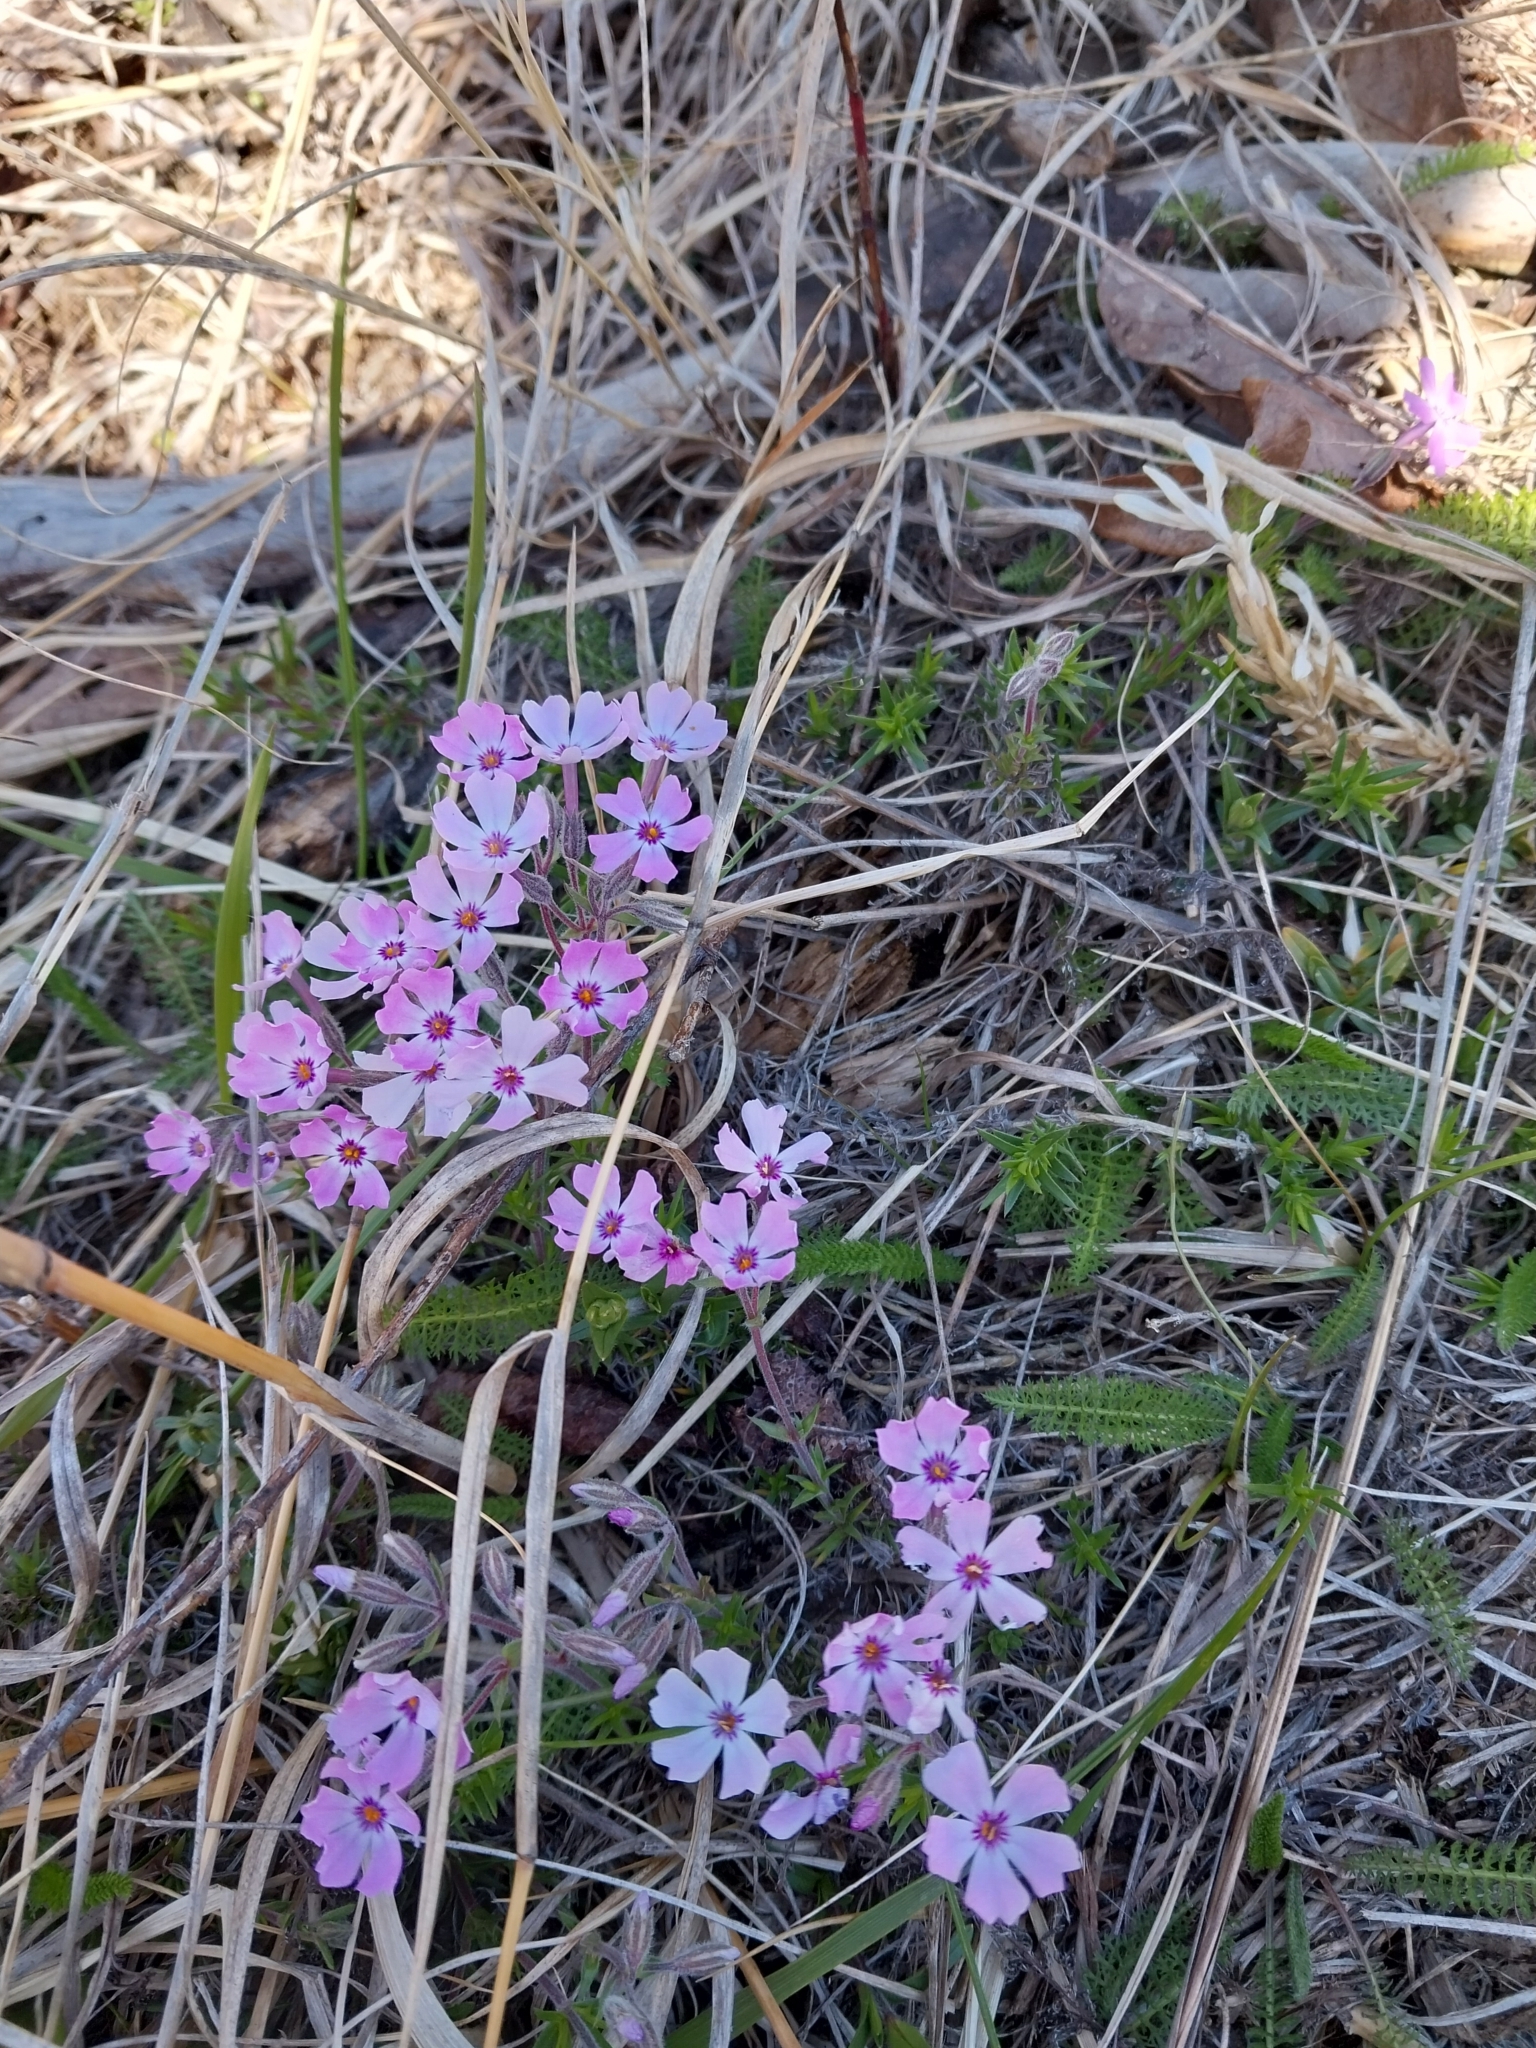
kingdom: Plantae
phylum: Tracheophyta
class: Magnoliopsida
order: Ericales
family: Polemoniaceae
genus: Phlox
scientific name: Phlox subulata
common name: Moss phlox
